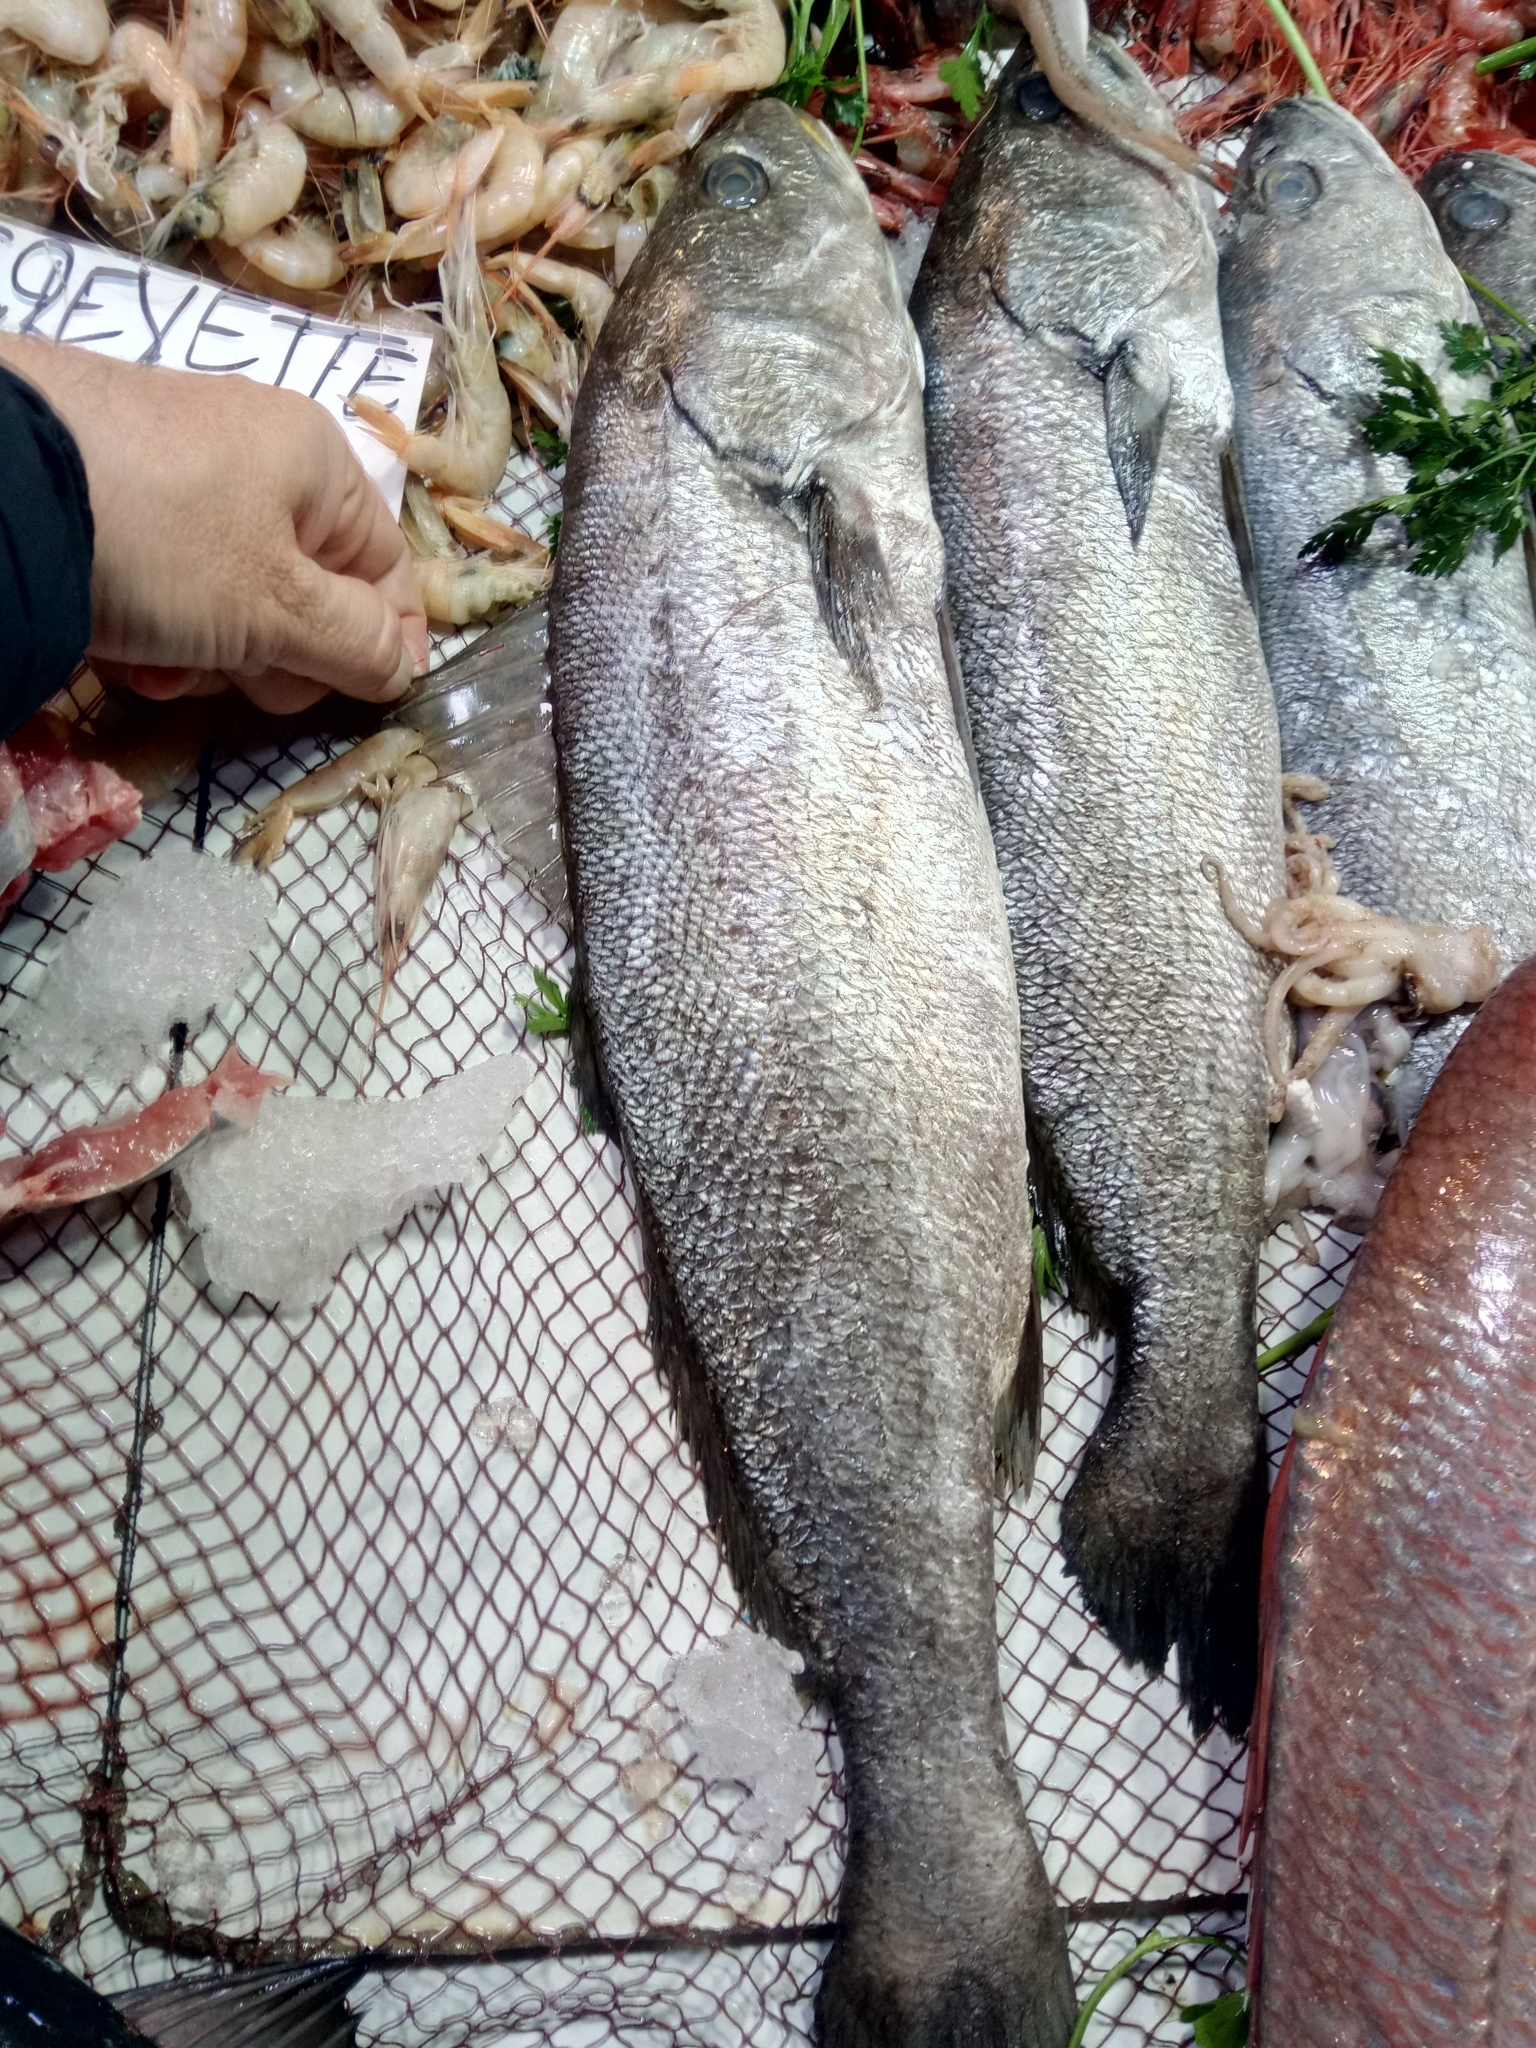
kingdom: Animalia
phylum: Chordata
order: Perciformes
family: Sciaenidae
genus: Argyrosomus
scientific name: Argyrosomus regius
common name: Meagre
